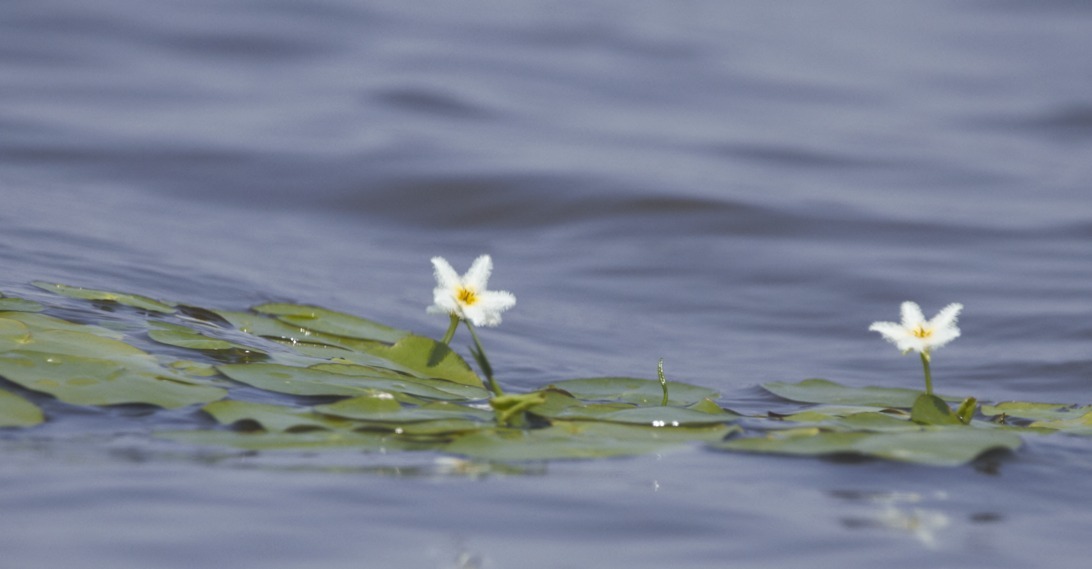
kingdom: Plantae
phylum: Tracheophyta
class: Magnoliopsida
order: Asterales
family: Menyanthaceae
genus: Nymphoides
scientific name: Nymphoides humboldtiana
